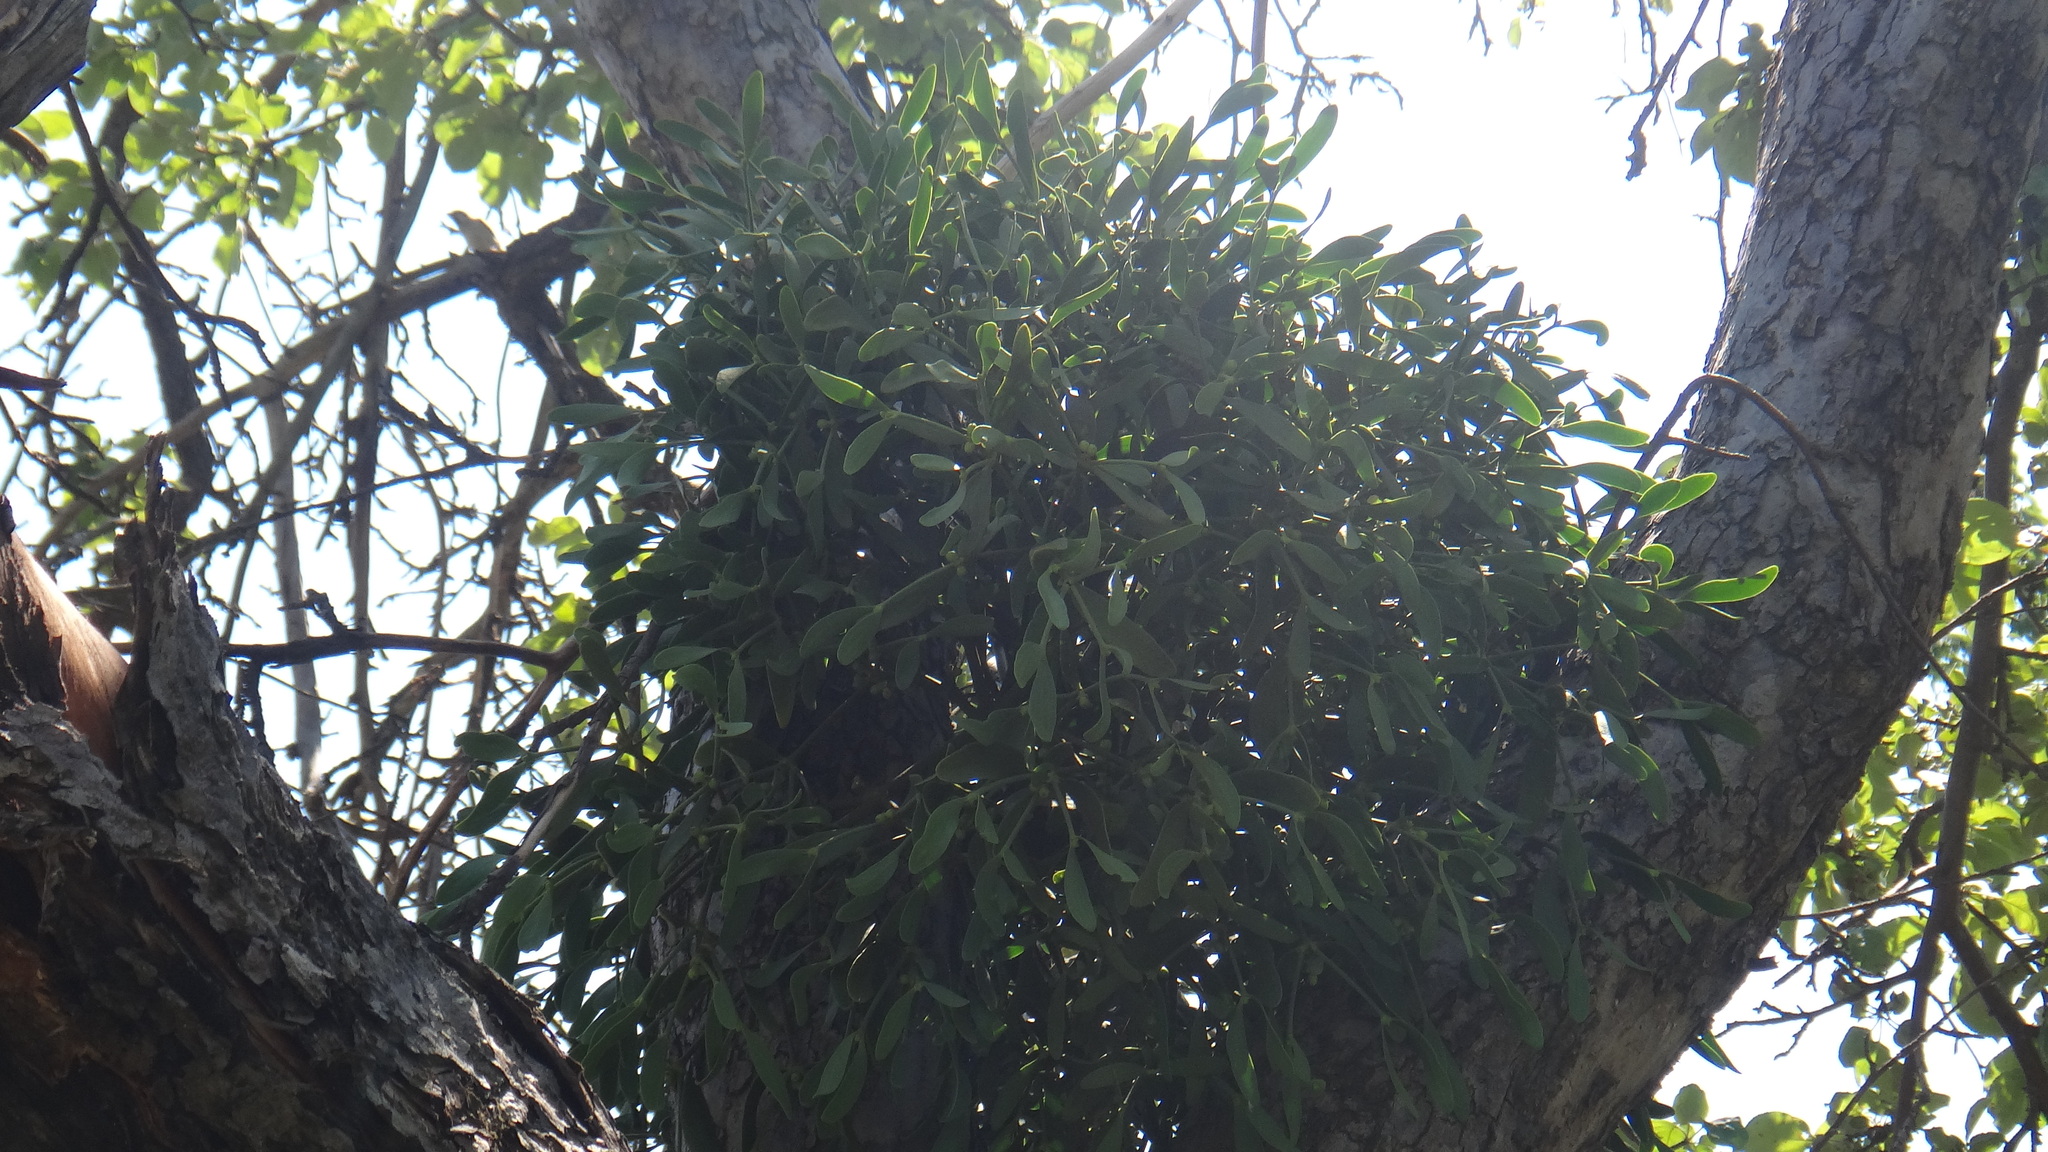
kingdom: Plantae
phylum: Tracheophyta
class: Magnoliopsida
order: Santalales
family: Viscaceae
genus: Viscum
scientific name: Viscum album
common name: Mistletoe
